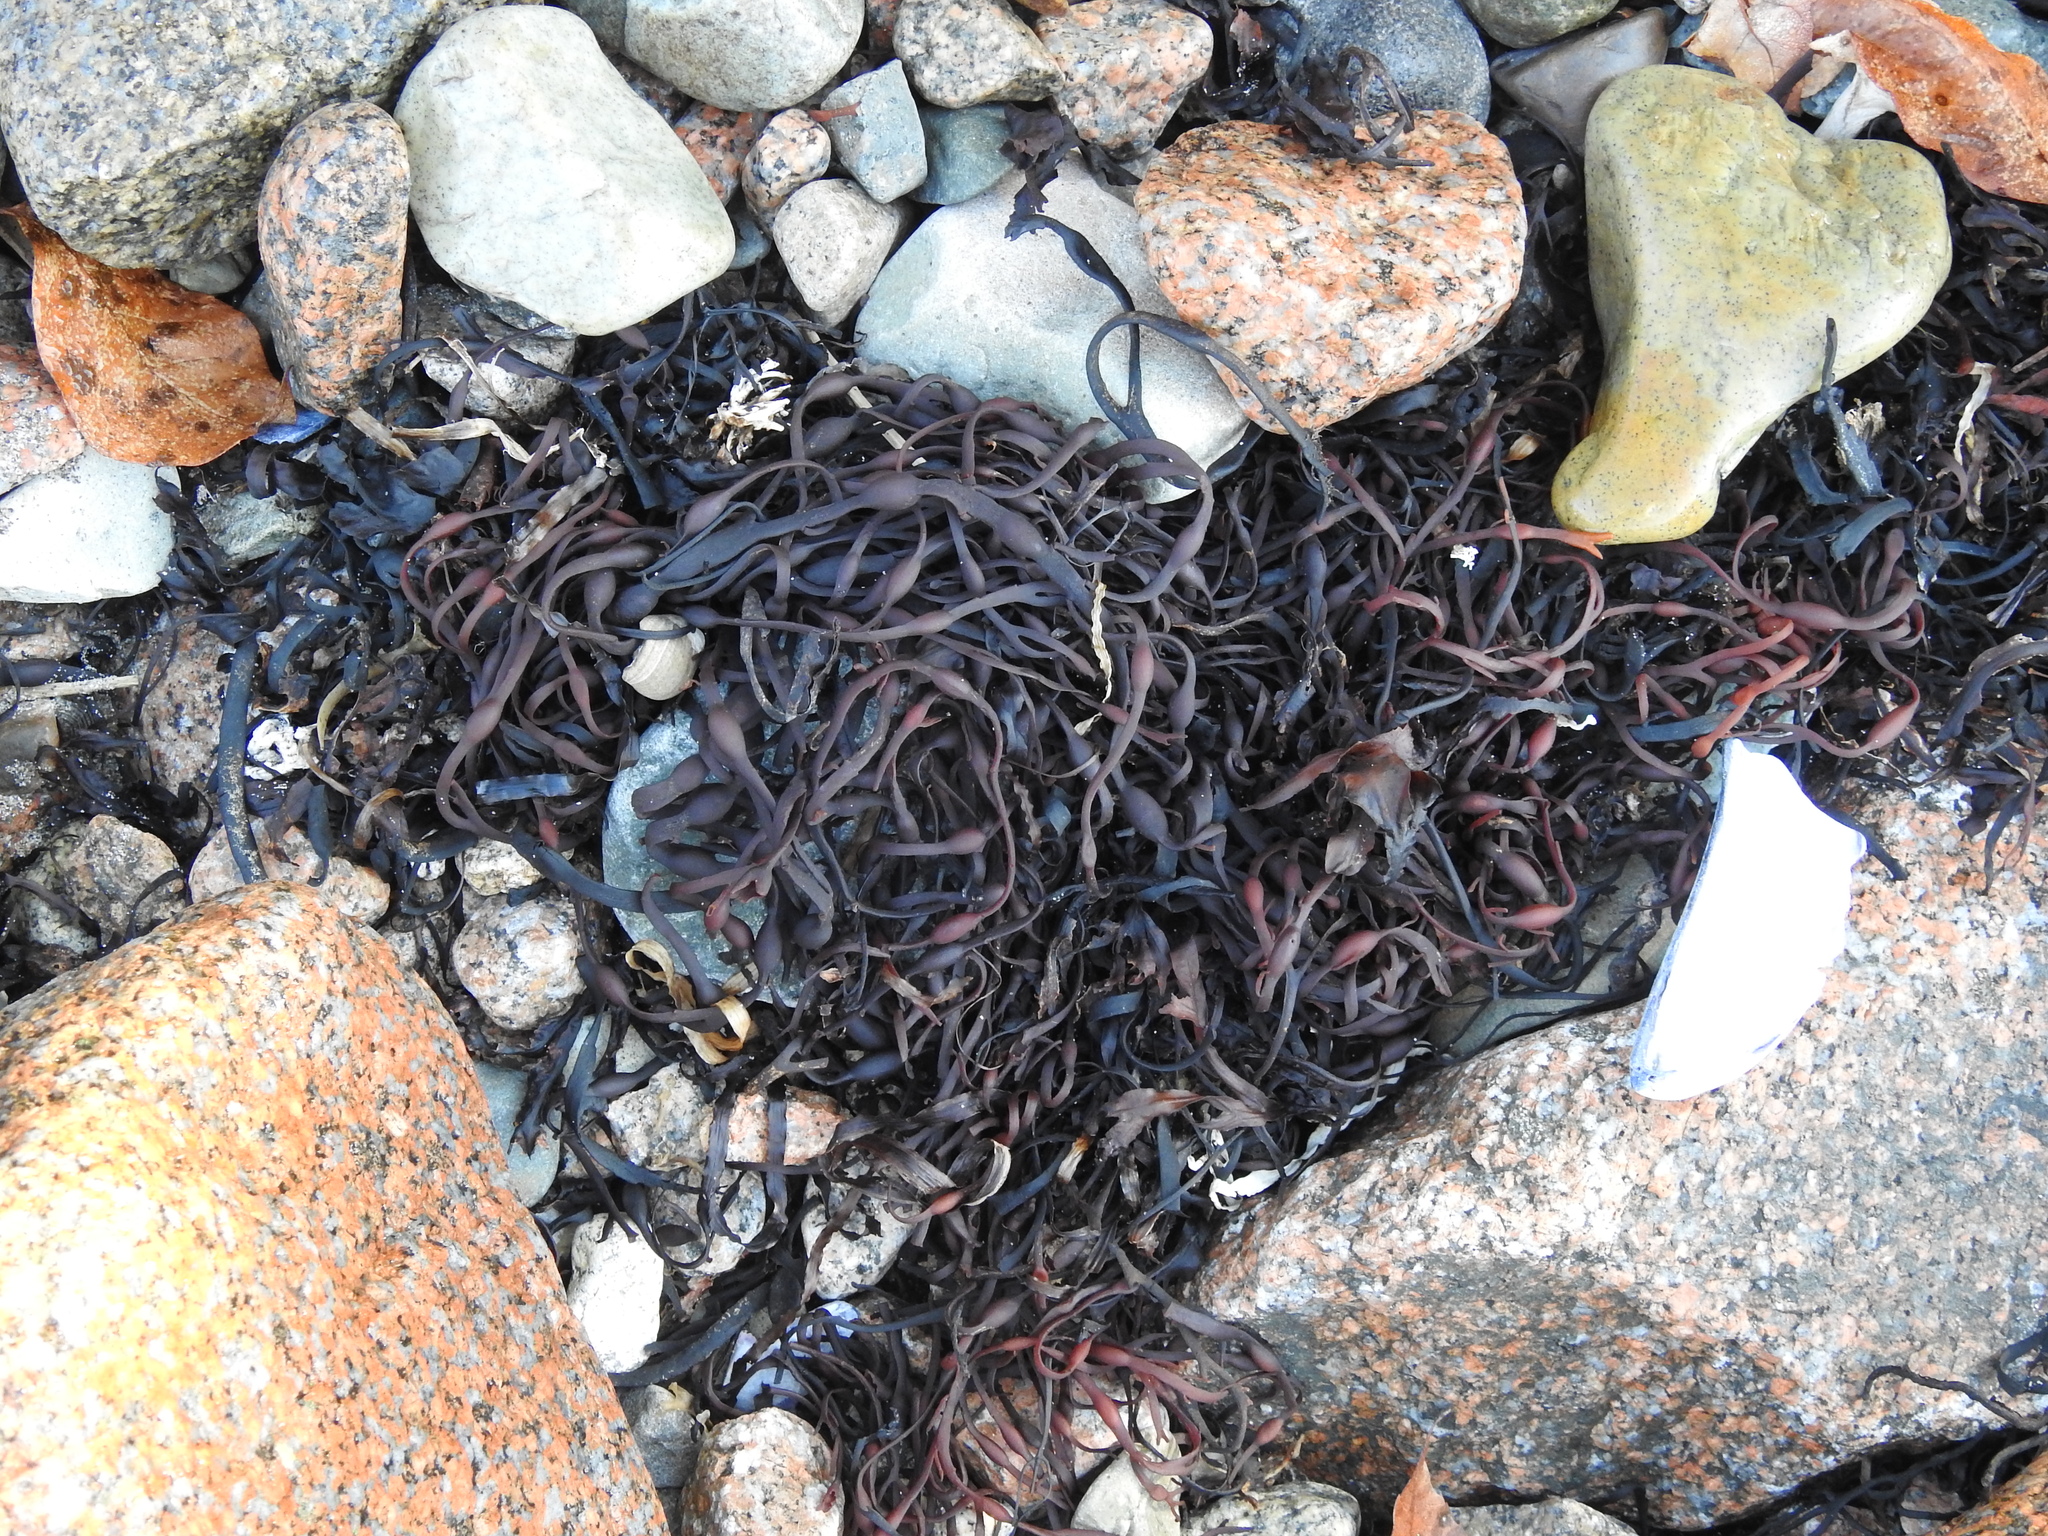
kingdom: Chromista
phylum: Ochrophyta
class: Phaeophyceae
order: Fucales
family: Fucaceae
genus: Ascophyllum
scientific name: Ascophyllum nodosum
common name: Knotted wrack
